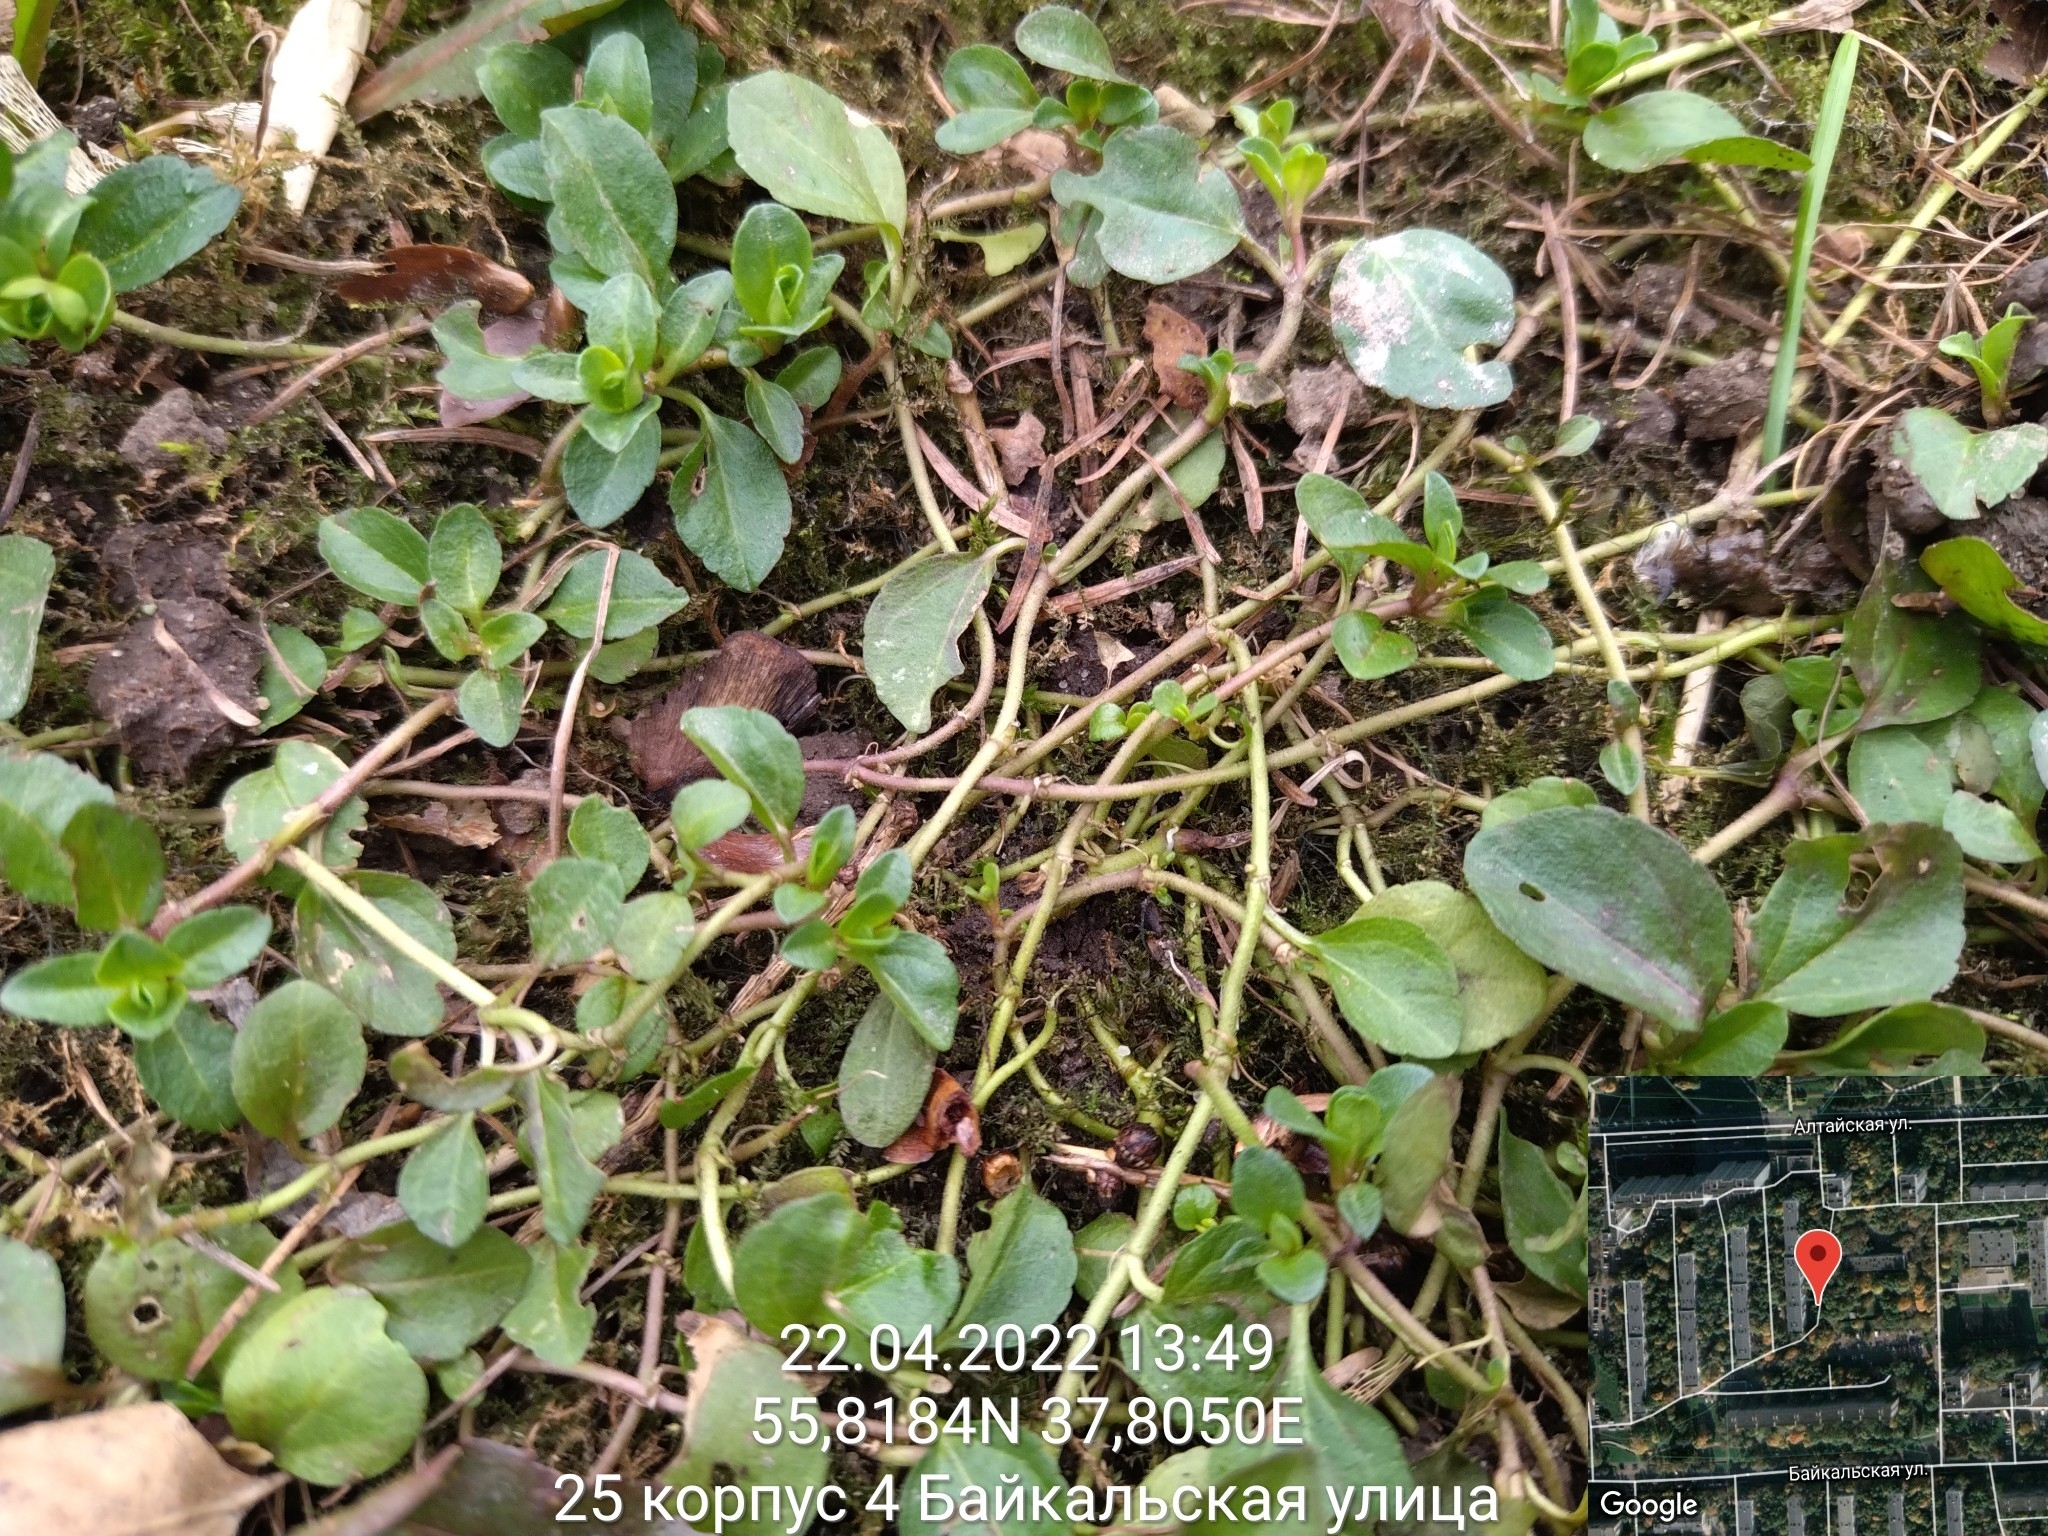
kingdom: Plantae
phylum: Tracheophyta
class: Magnoliopsida
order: Lamiales
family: Plantaginaceae
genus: Veronica
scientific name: Veronica serpyllifolia
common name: Thyme-leaved speedwell
